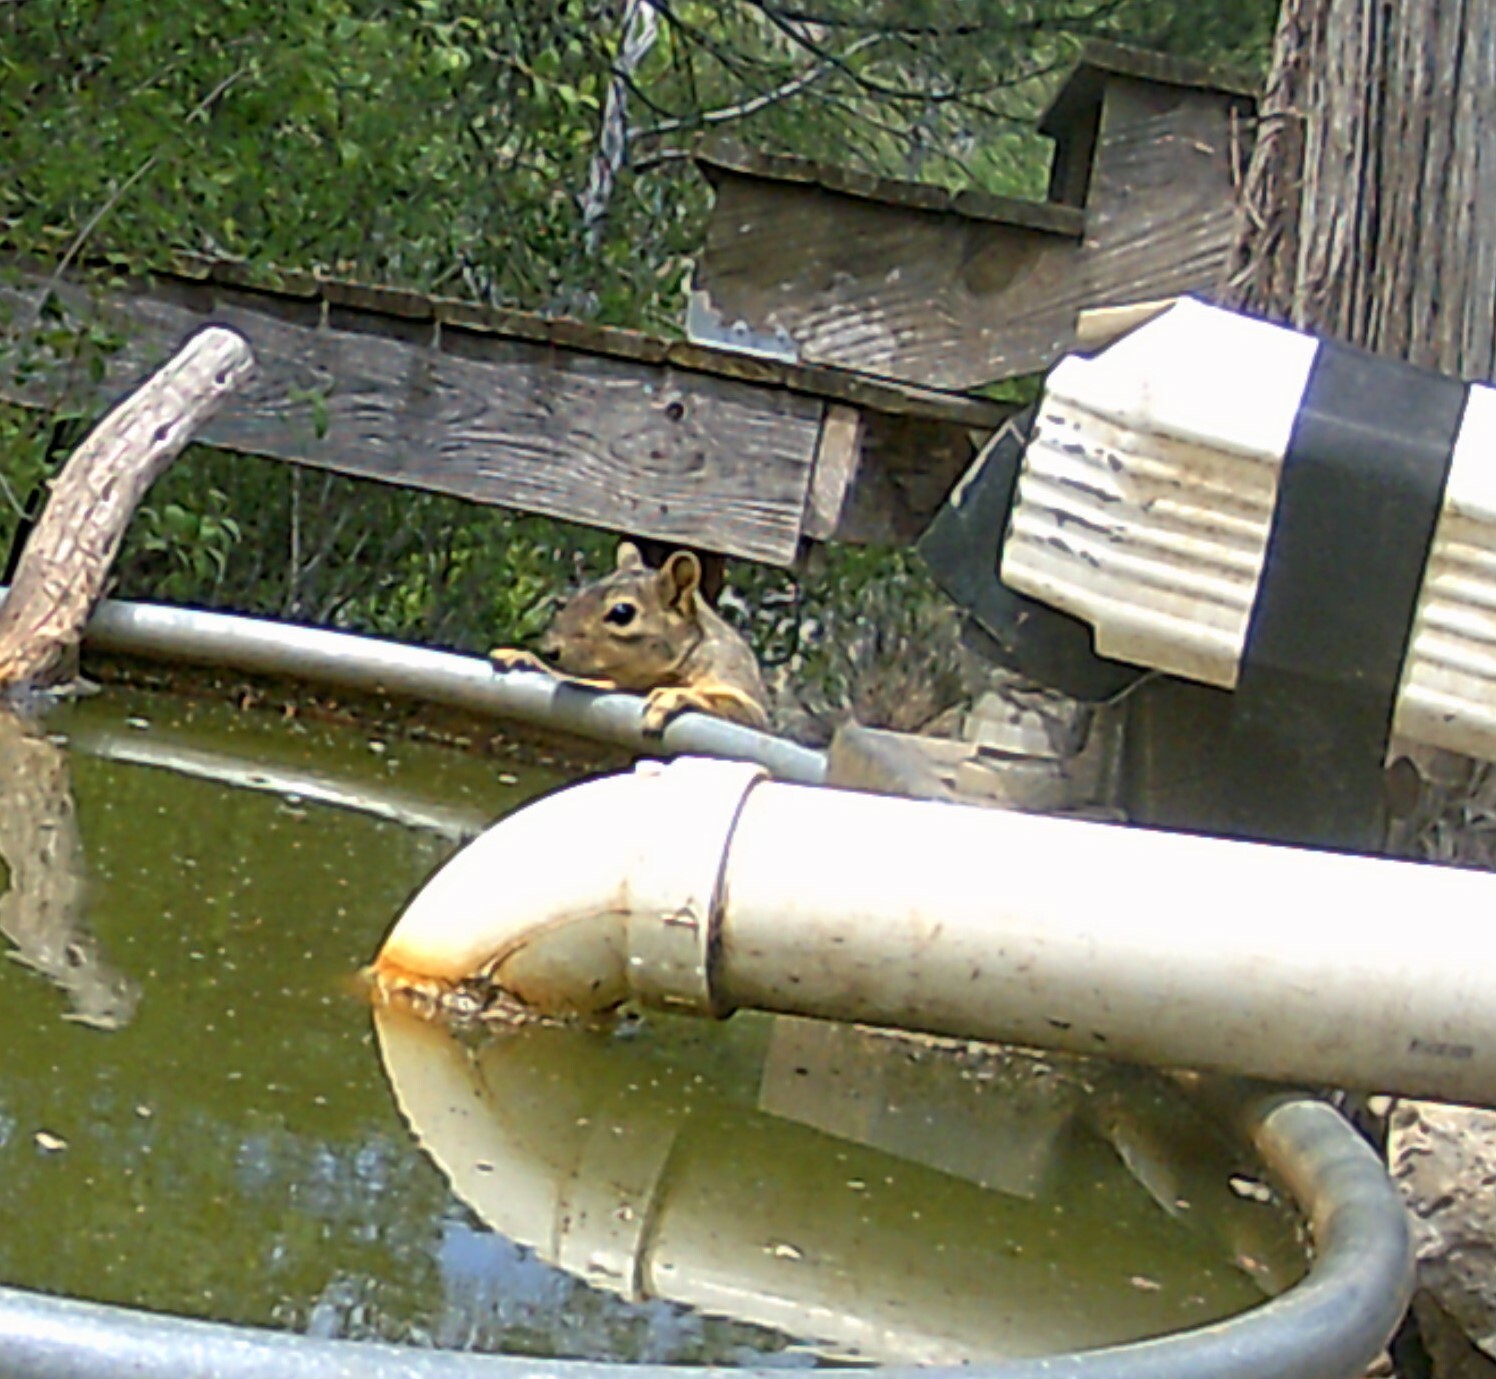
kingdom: Animalia
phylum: Chordata
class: Mammalia
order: Rodentia
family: Sciuridae
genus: Sciurus
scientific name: Sciurus niger
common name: Fox squirrel
